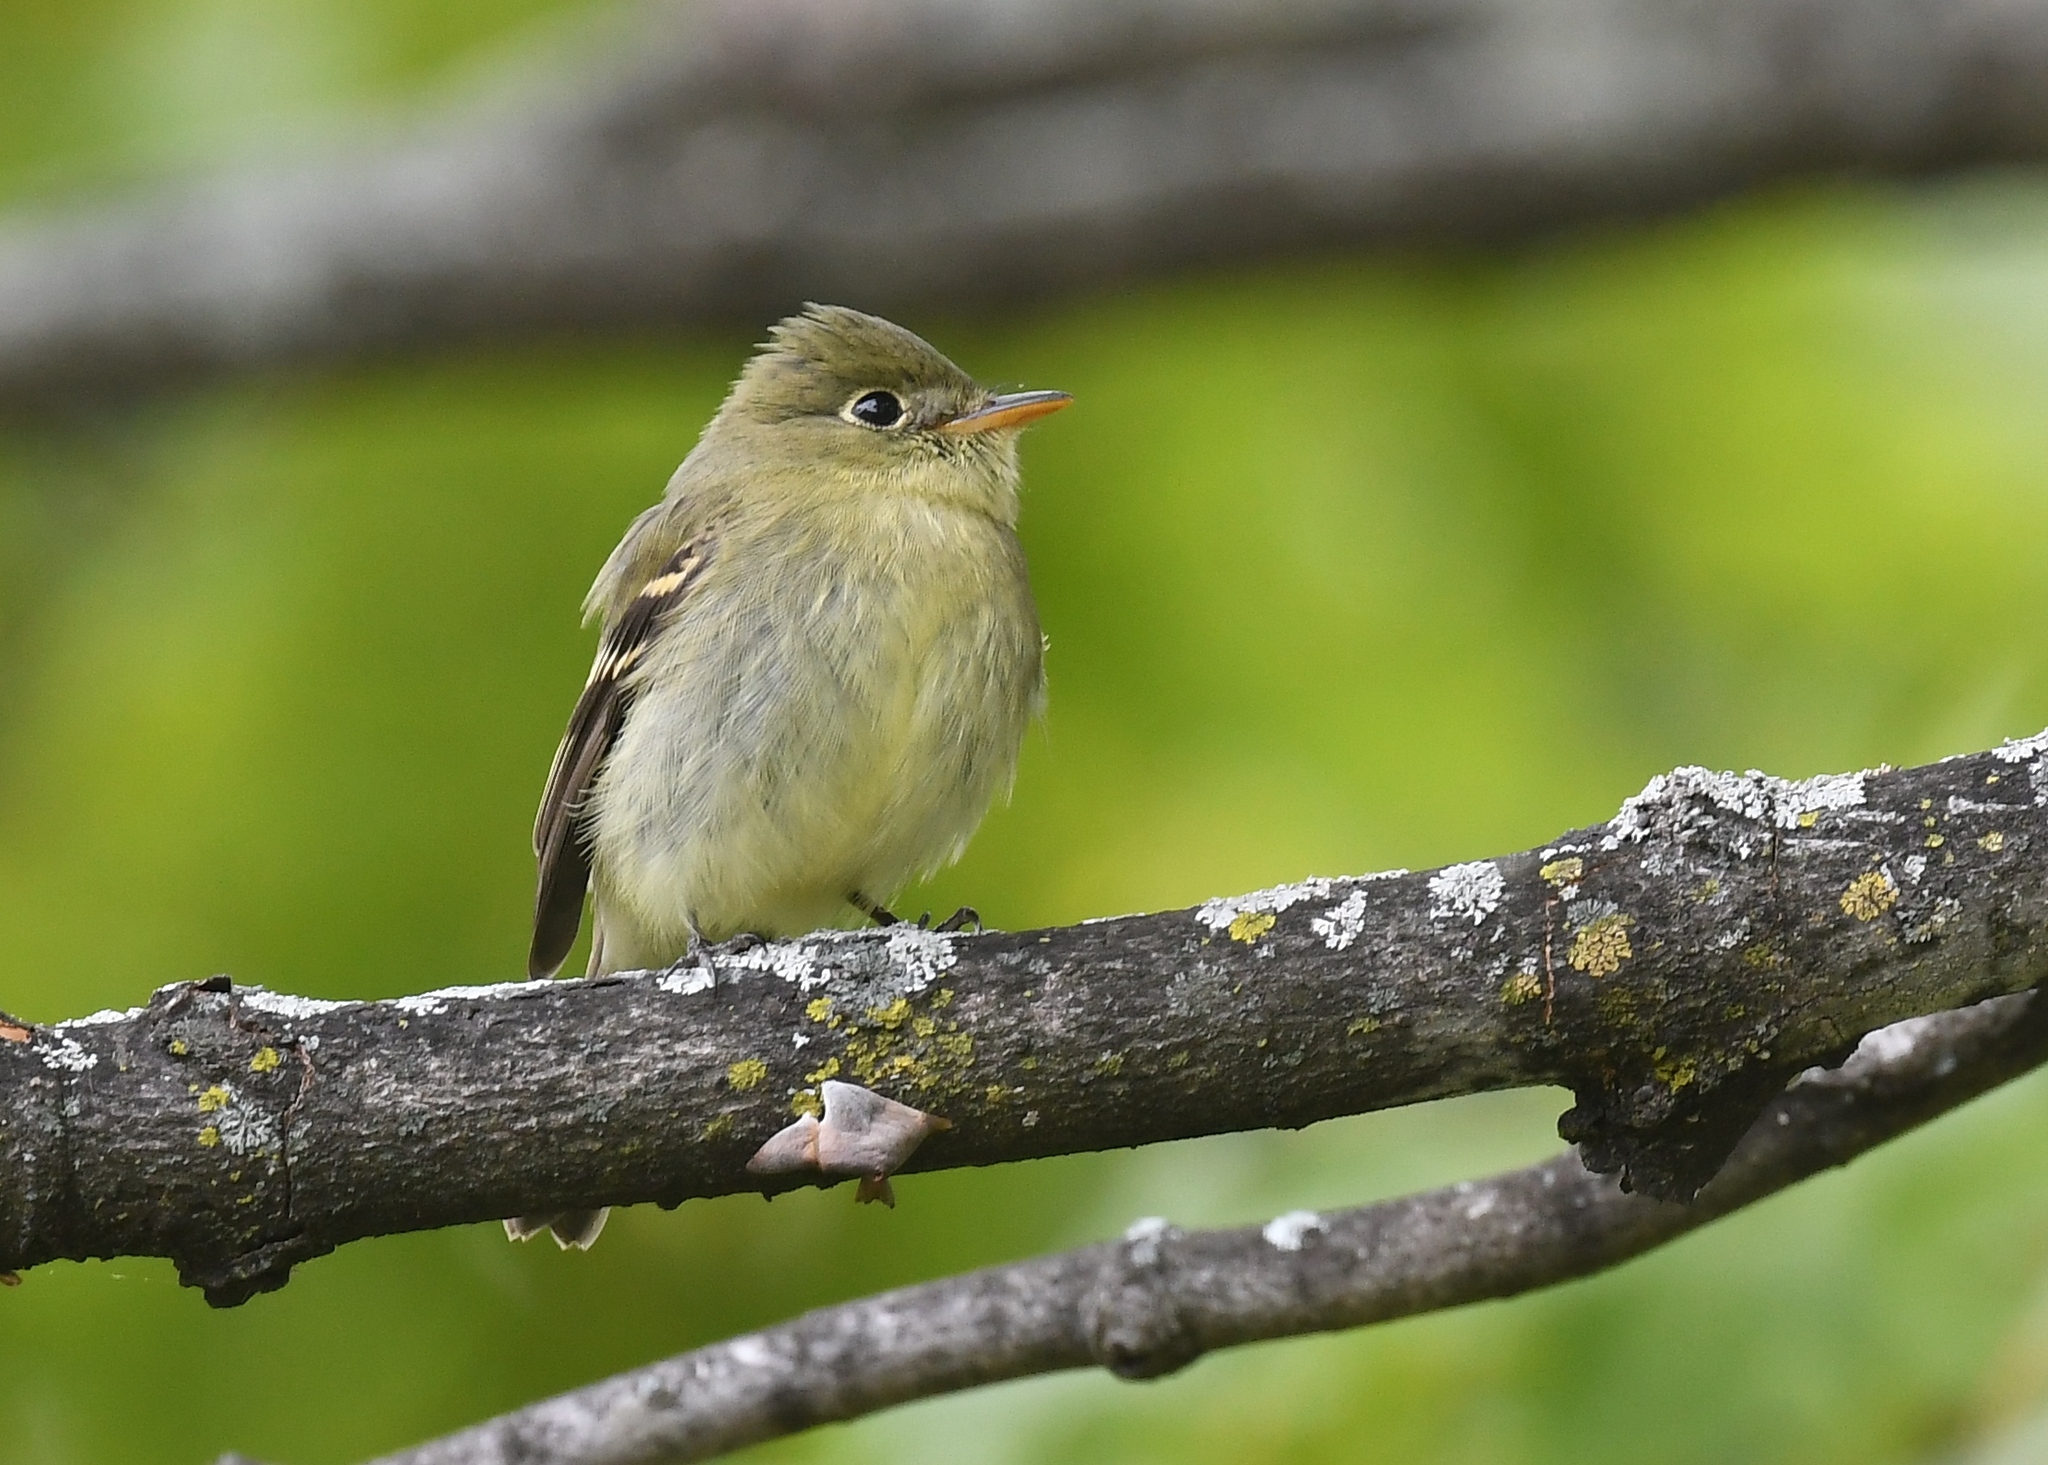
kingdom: Animalia
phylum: Chordata
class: Aves
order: Passeriformes
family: Tyrannidae
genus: Empidonax
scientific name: Empidonax flaviventris
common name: Yellow-bellied flycatcher
